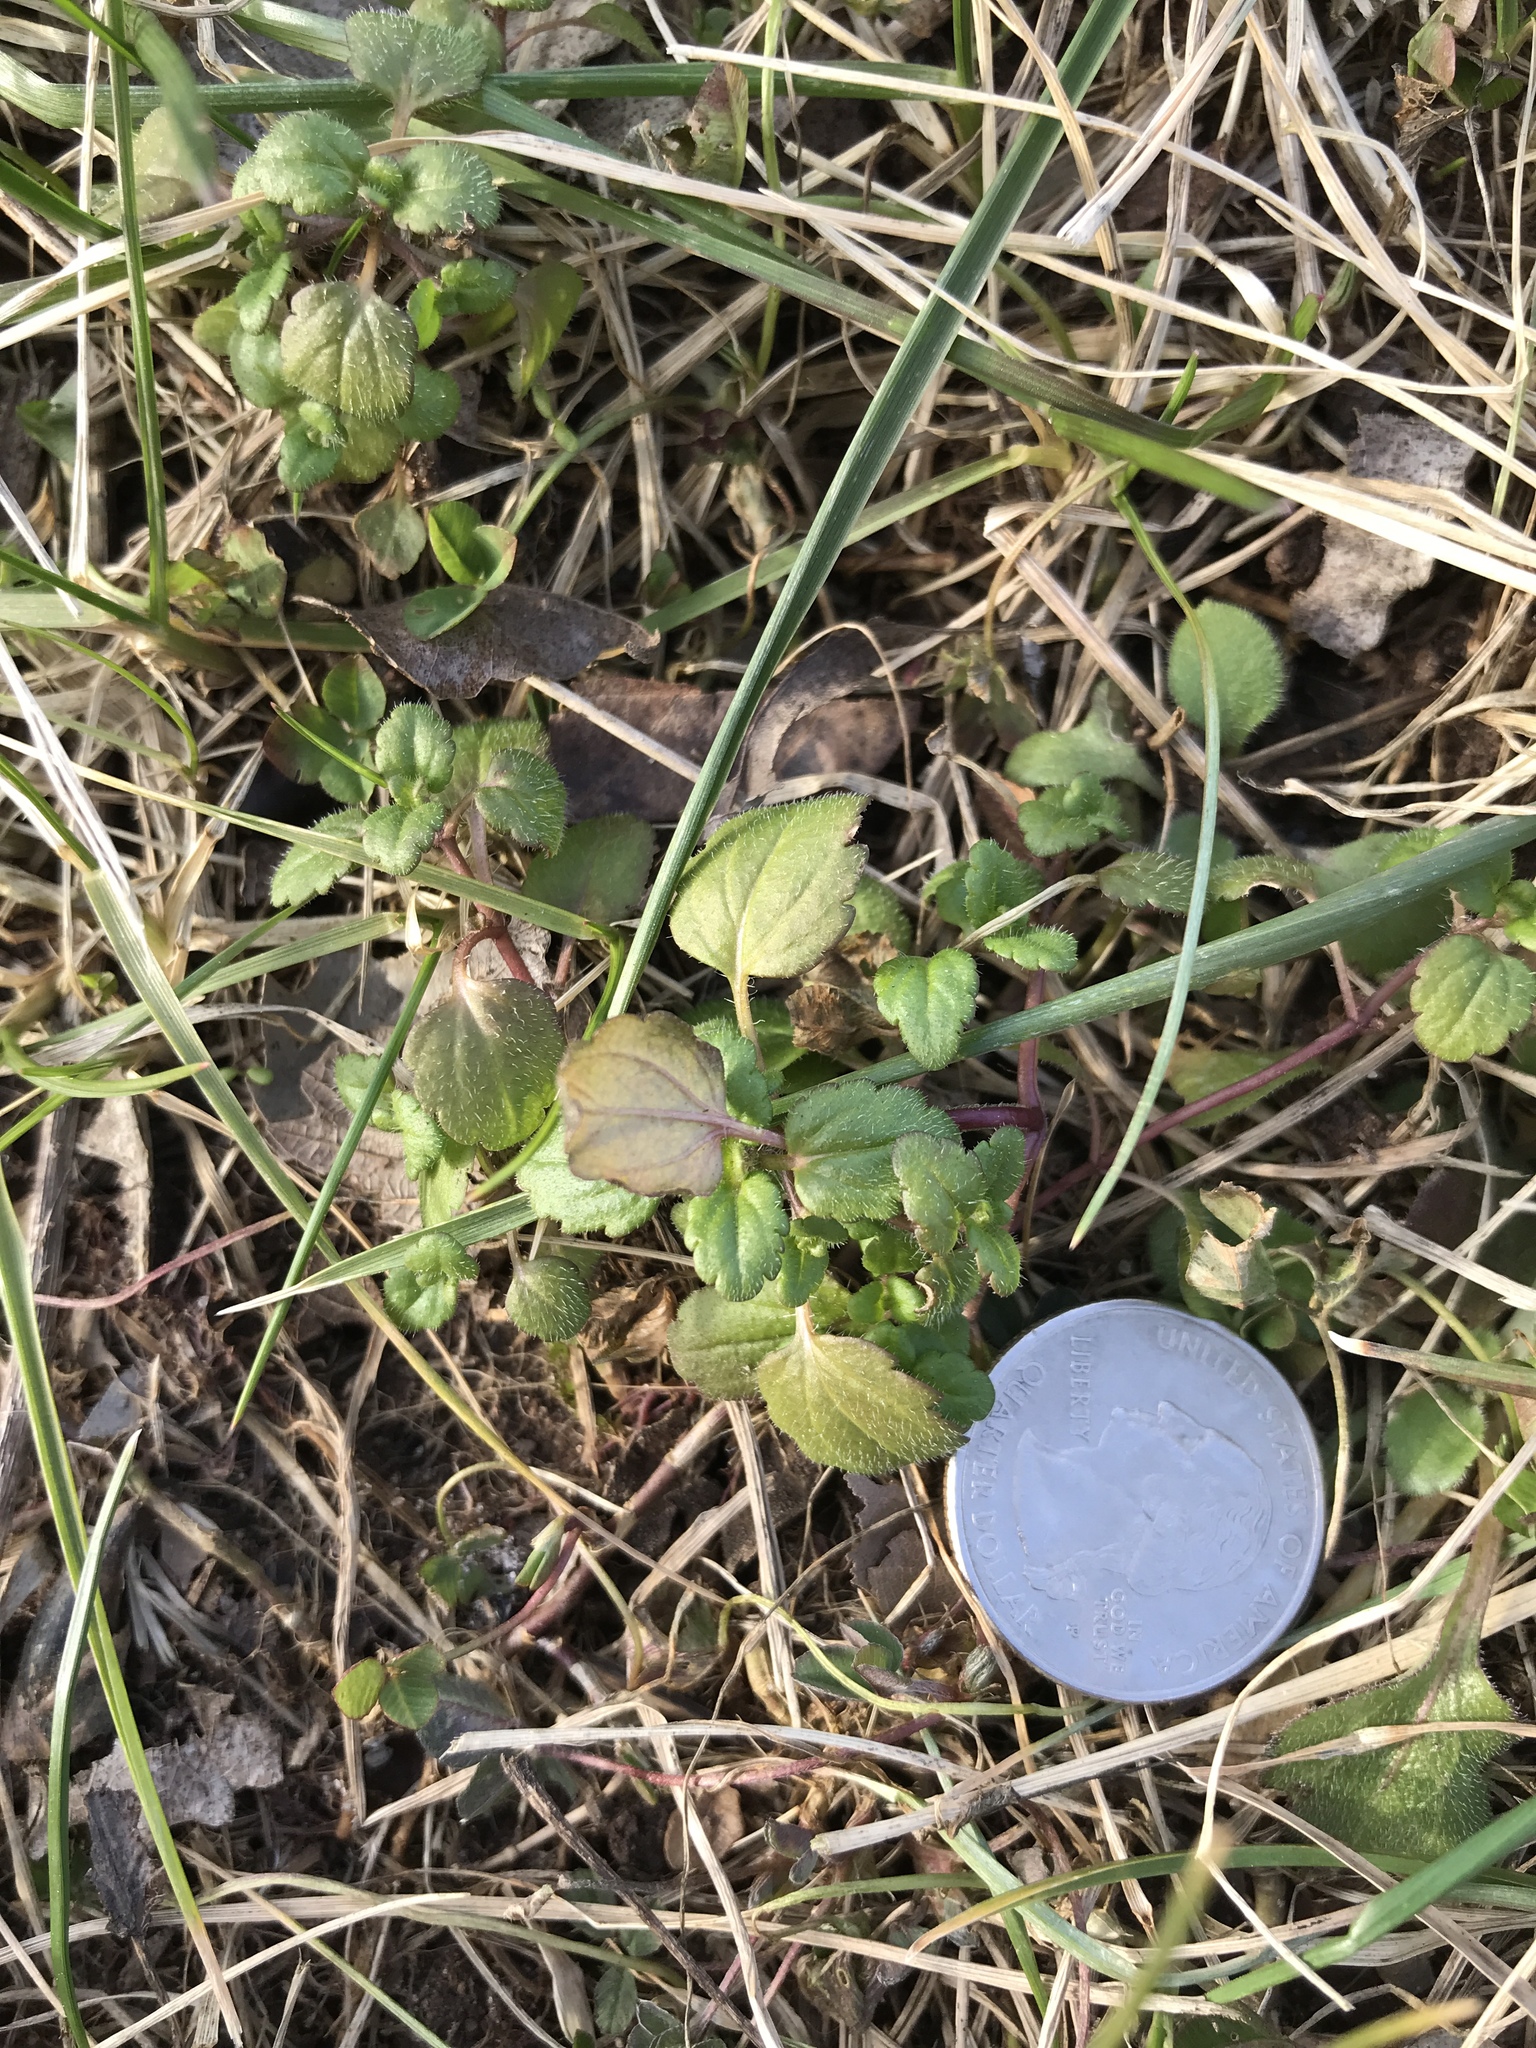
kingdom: Plantae
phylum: Tracheophyta
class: Magnoliopsida
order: Lamiales
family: Plantaginaceae
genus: Veronica
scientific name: Veronica
